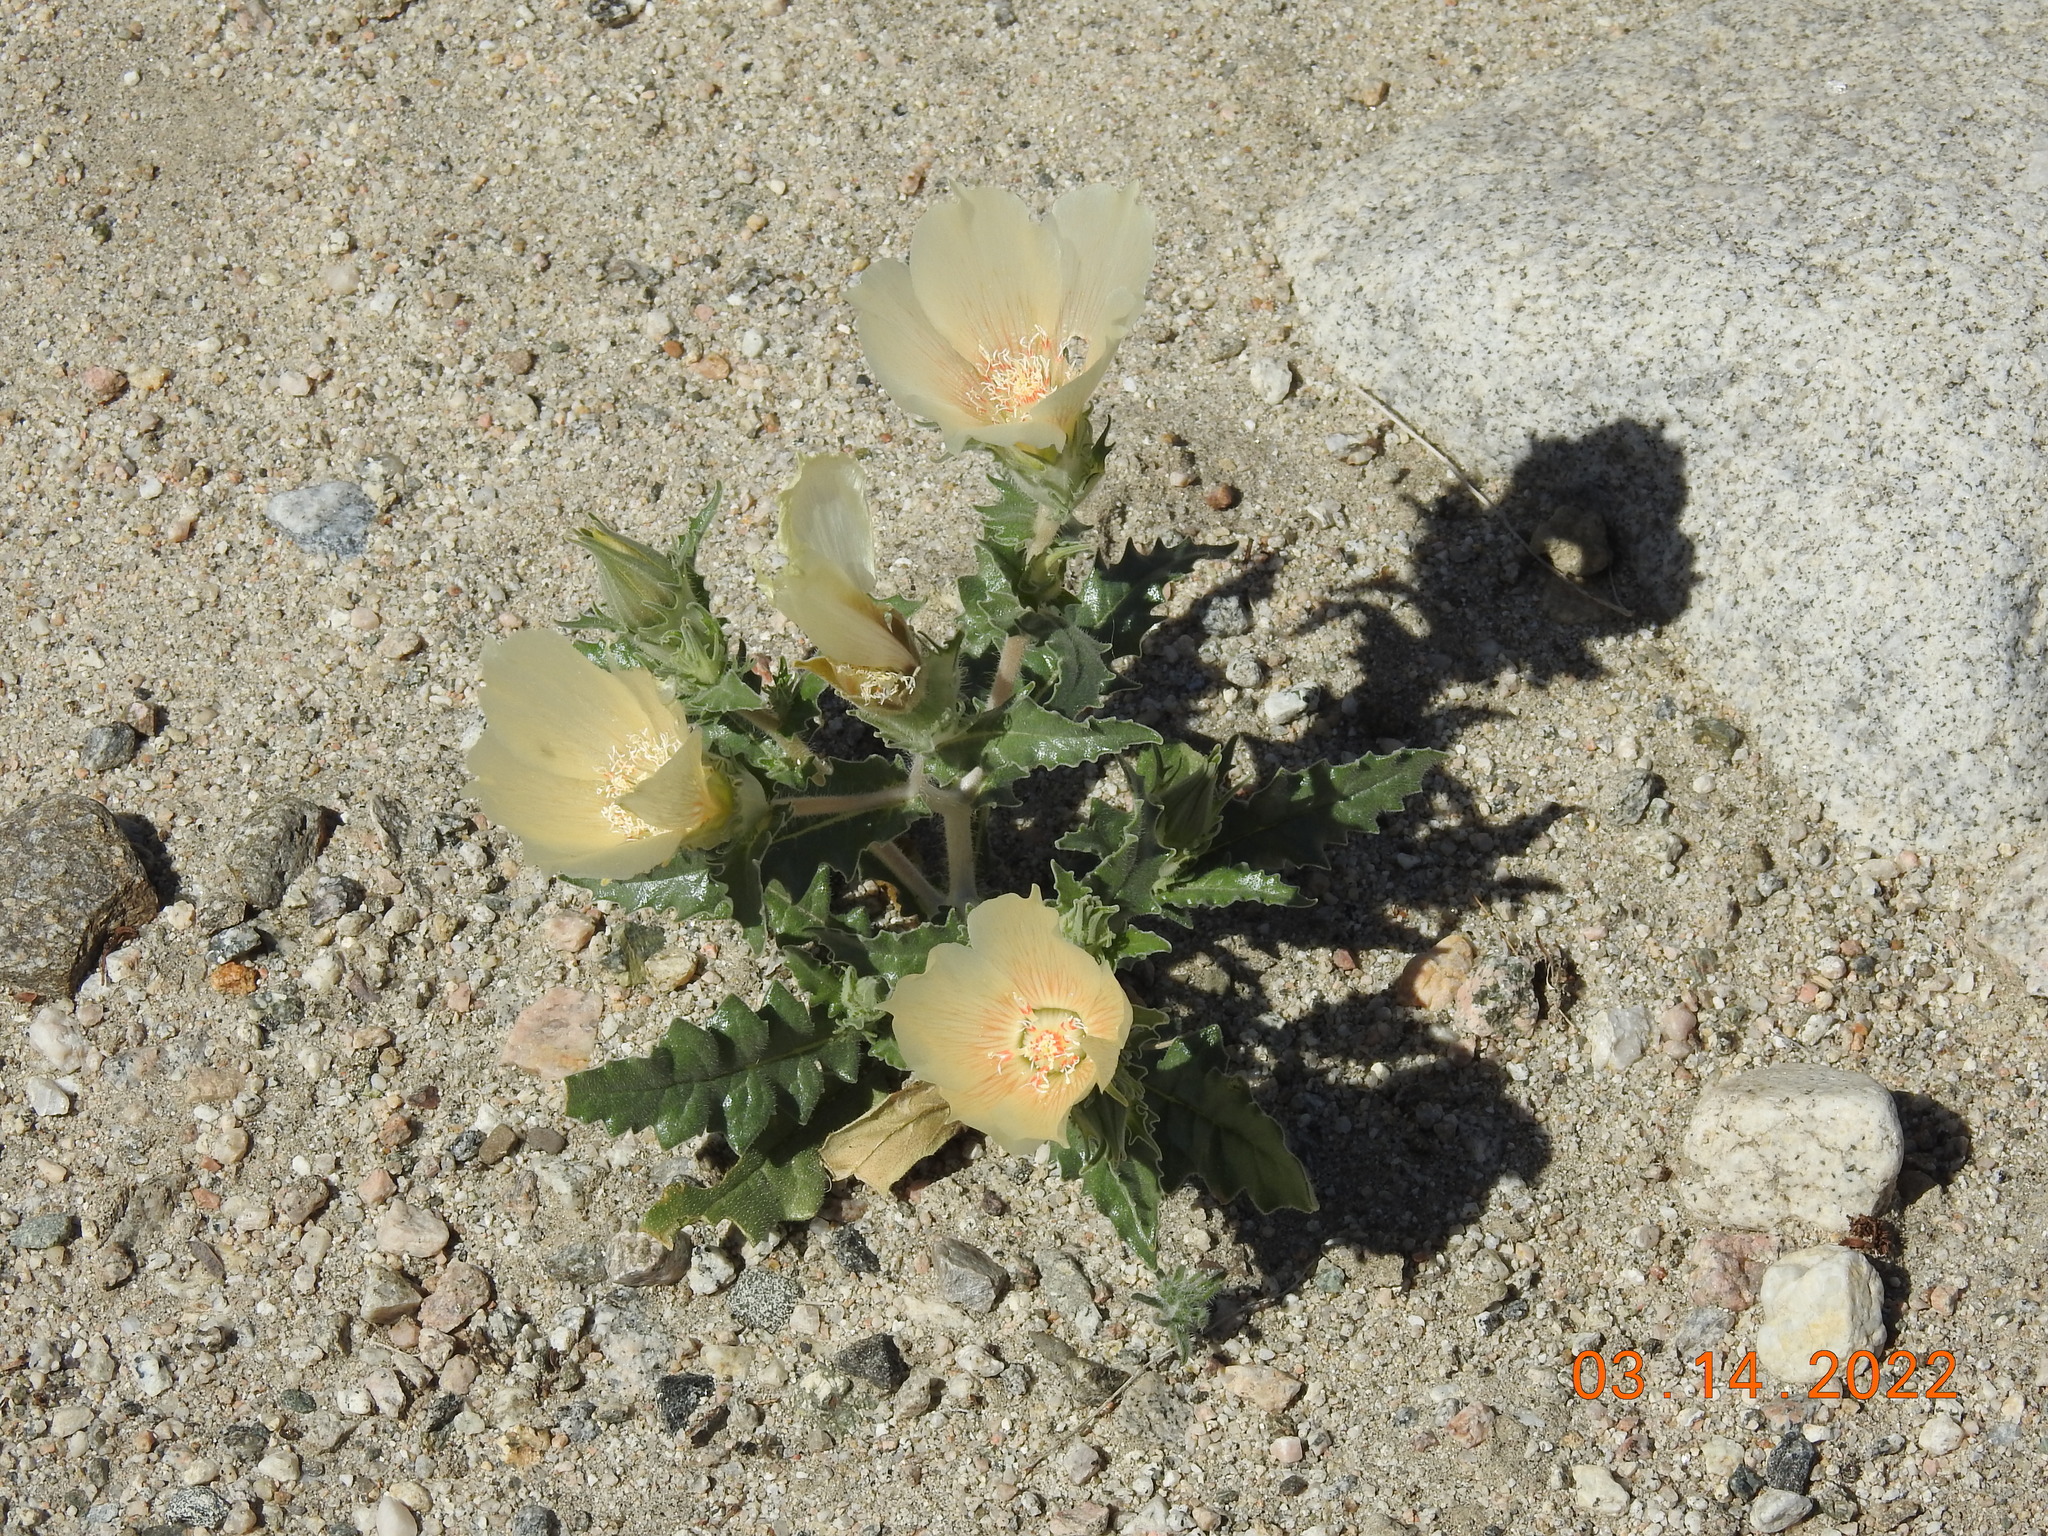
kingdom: Plantae
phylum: Tracheophyta
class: Magnoliopsida
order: Cornales
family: Loasaceae
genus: Mentzelia
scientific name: Mentzelia involucrata
